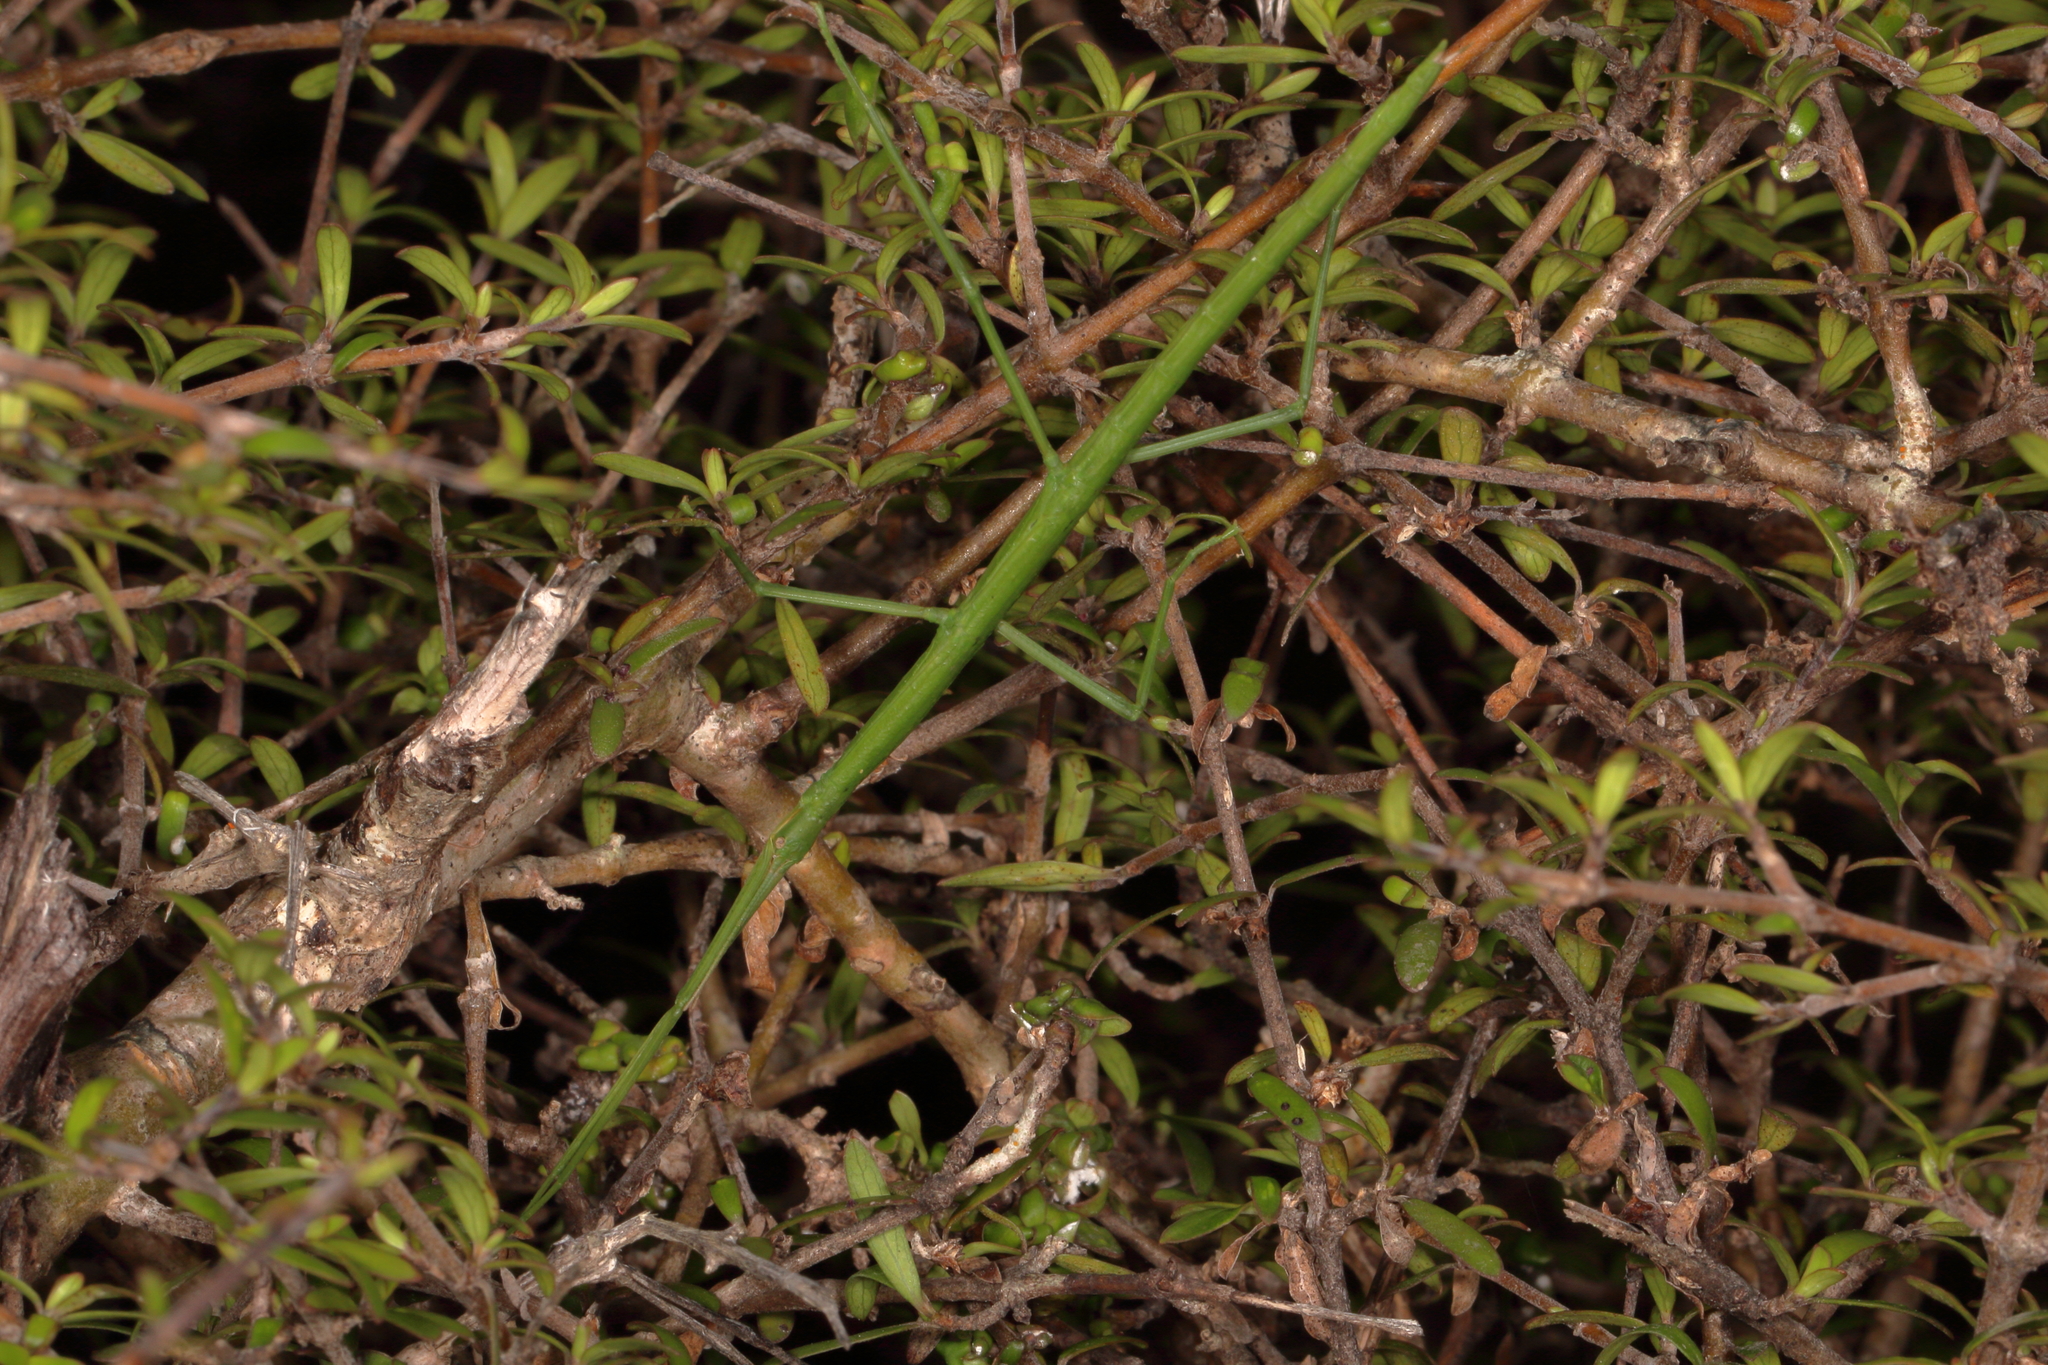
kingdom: Animalia
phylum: Arthropoda
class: Insecta
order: Phasmida
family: Phasmatidae
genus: Clitarchus
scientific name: Clitarchus hookeri
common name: Smooth stick insect
